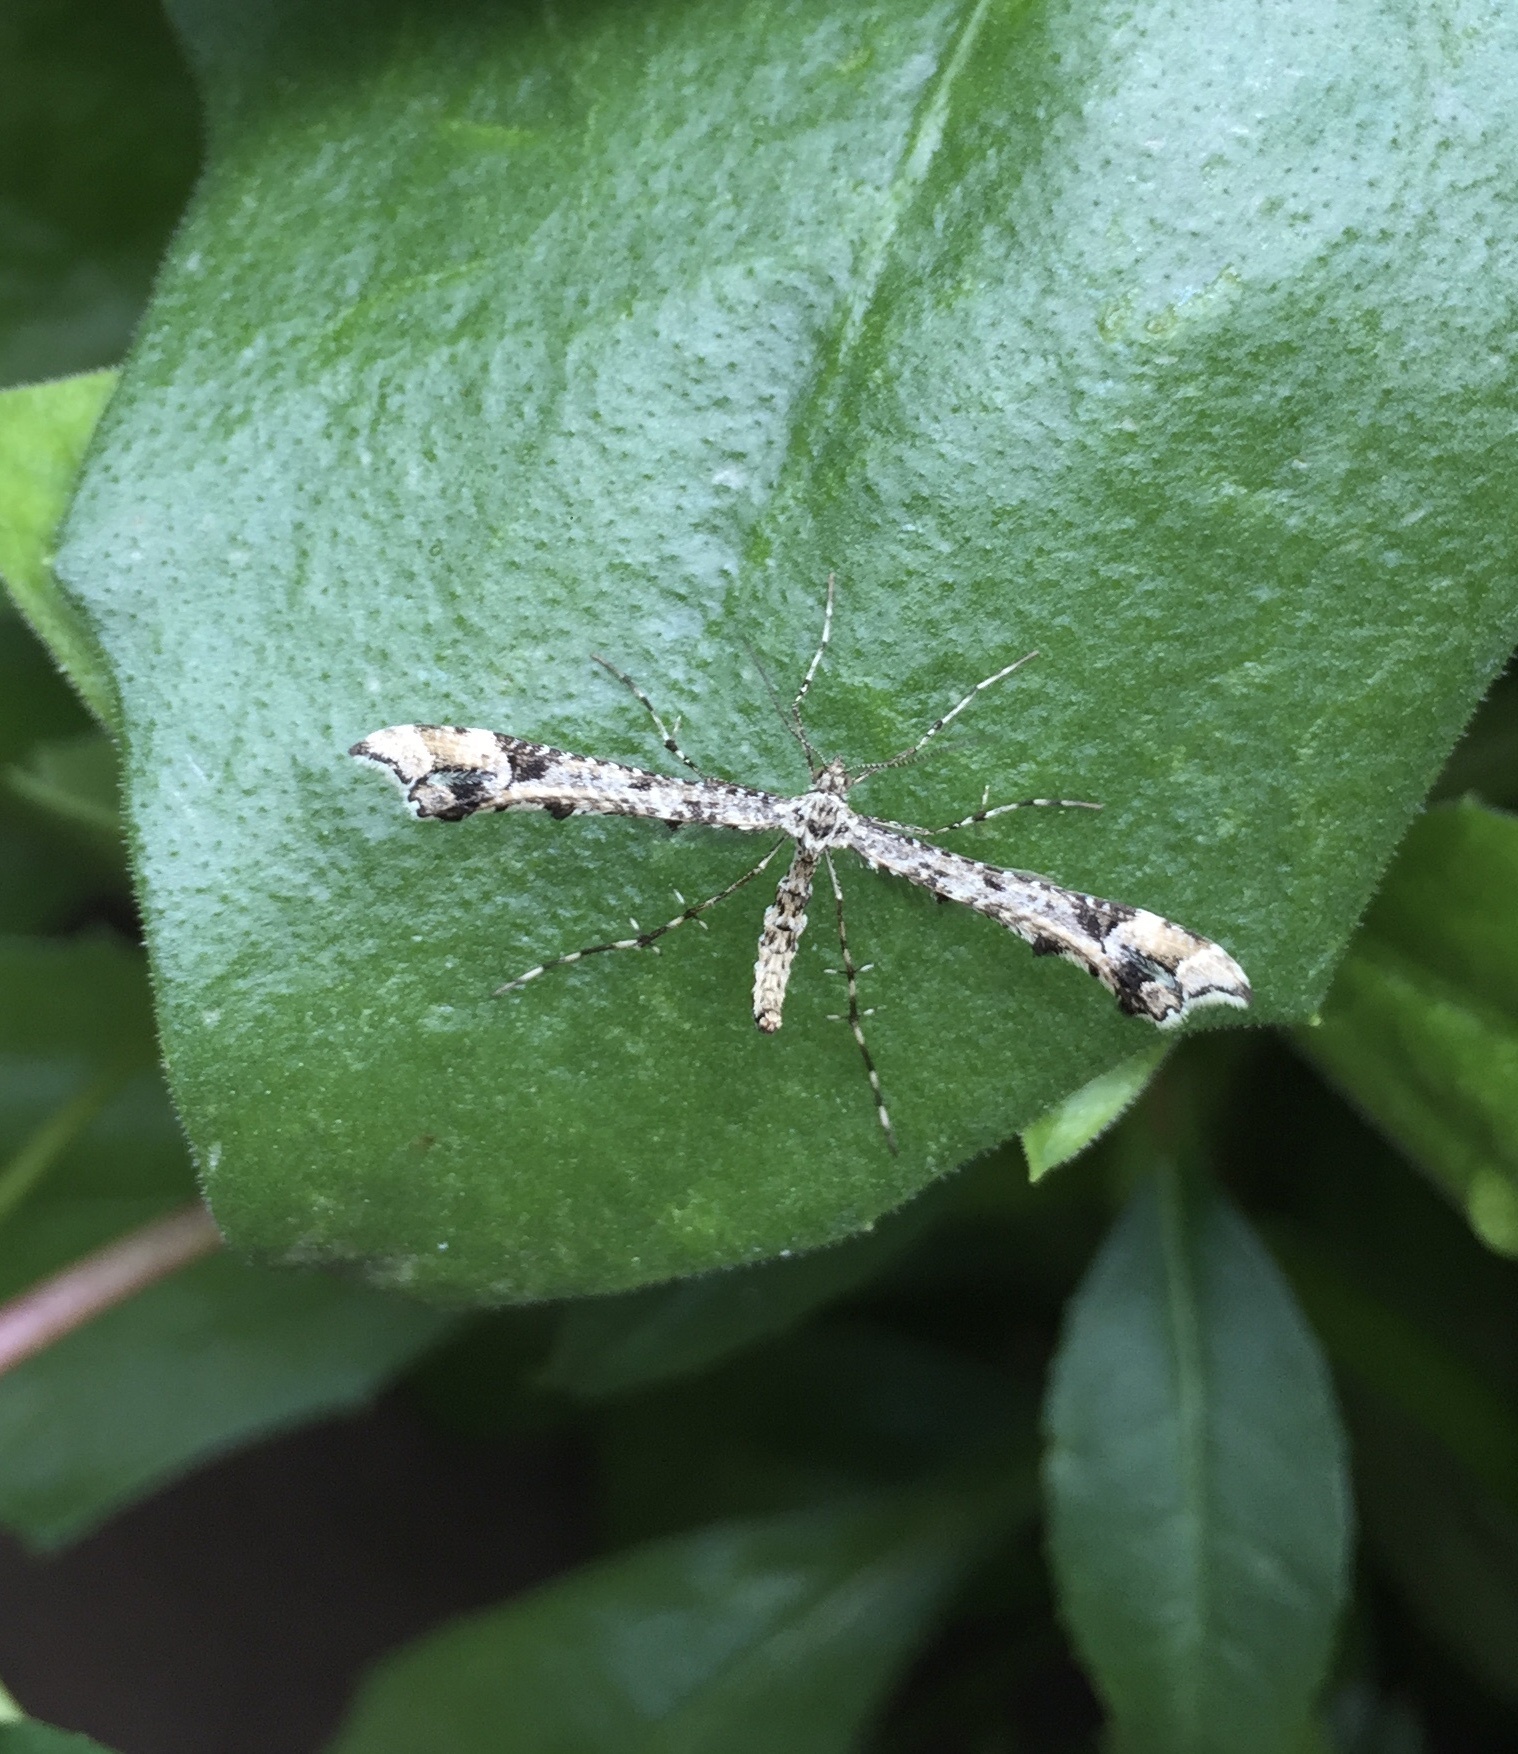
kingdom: Animalia
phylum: Arthropoda
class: Insecta
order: Lepidoptera
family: Pterophoridae
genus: Amblyptilia
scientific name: Amblyptilia pica
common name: Geranium plume moth
